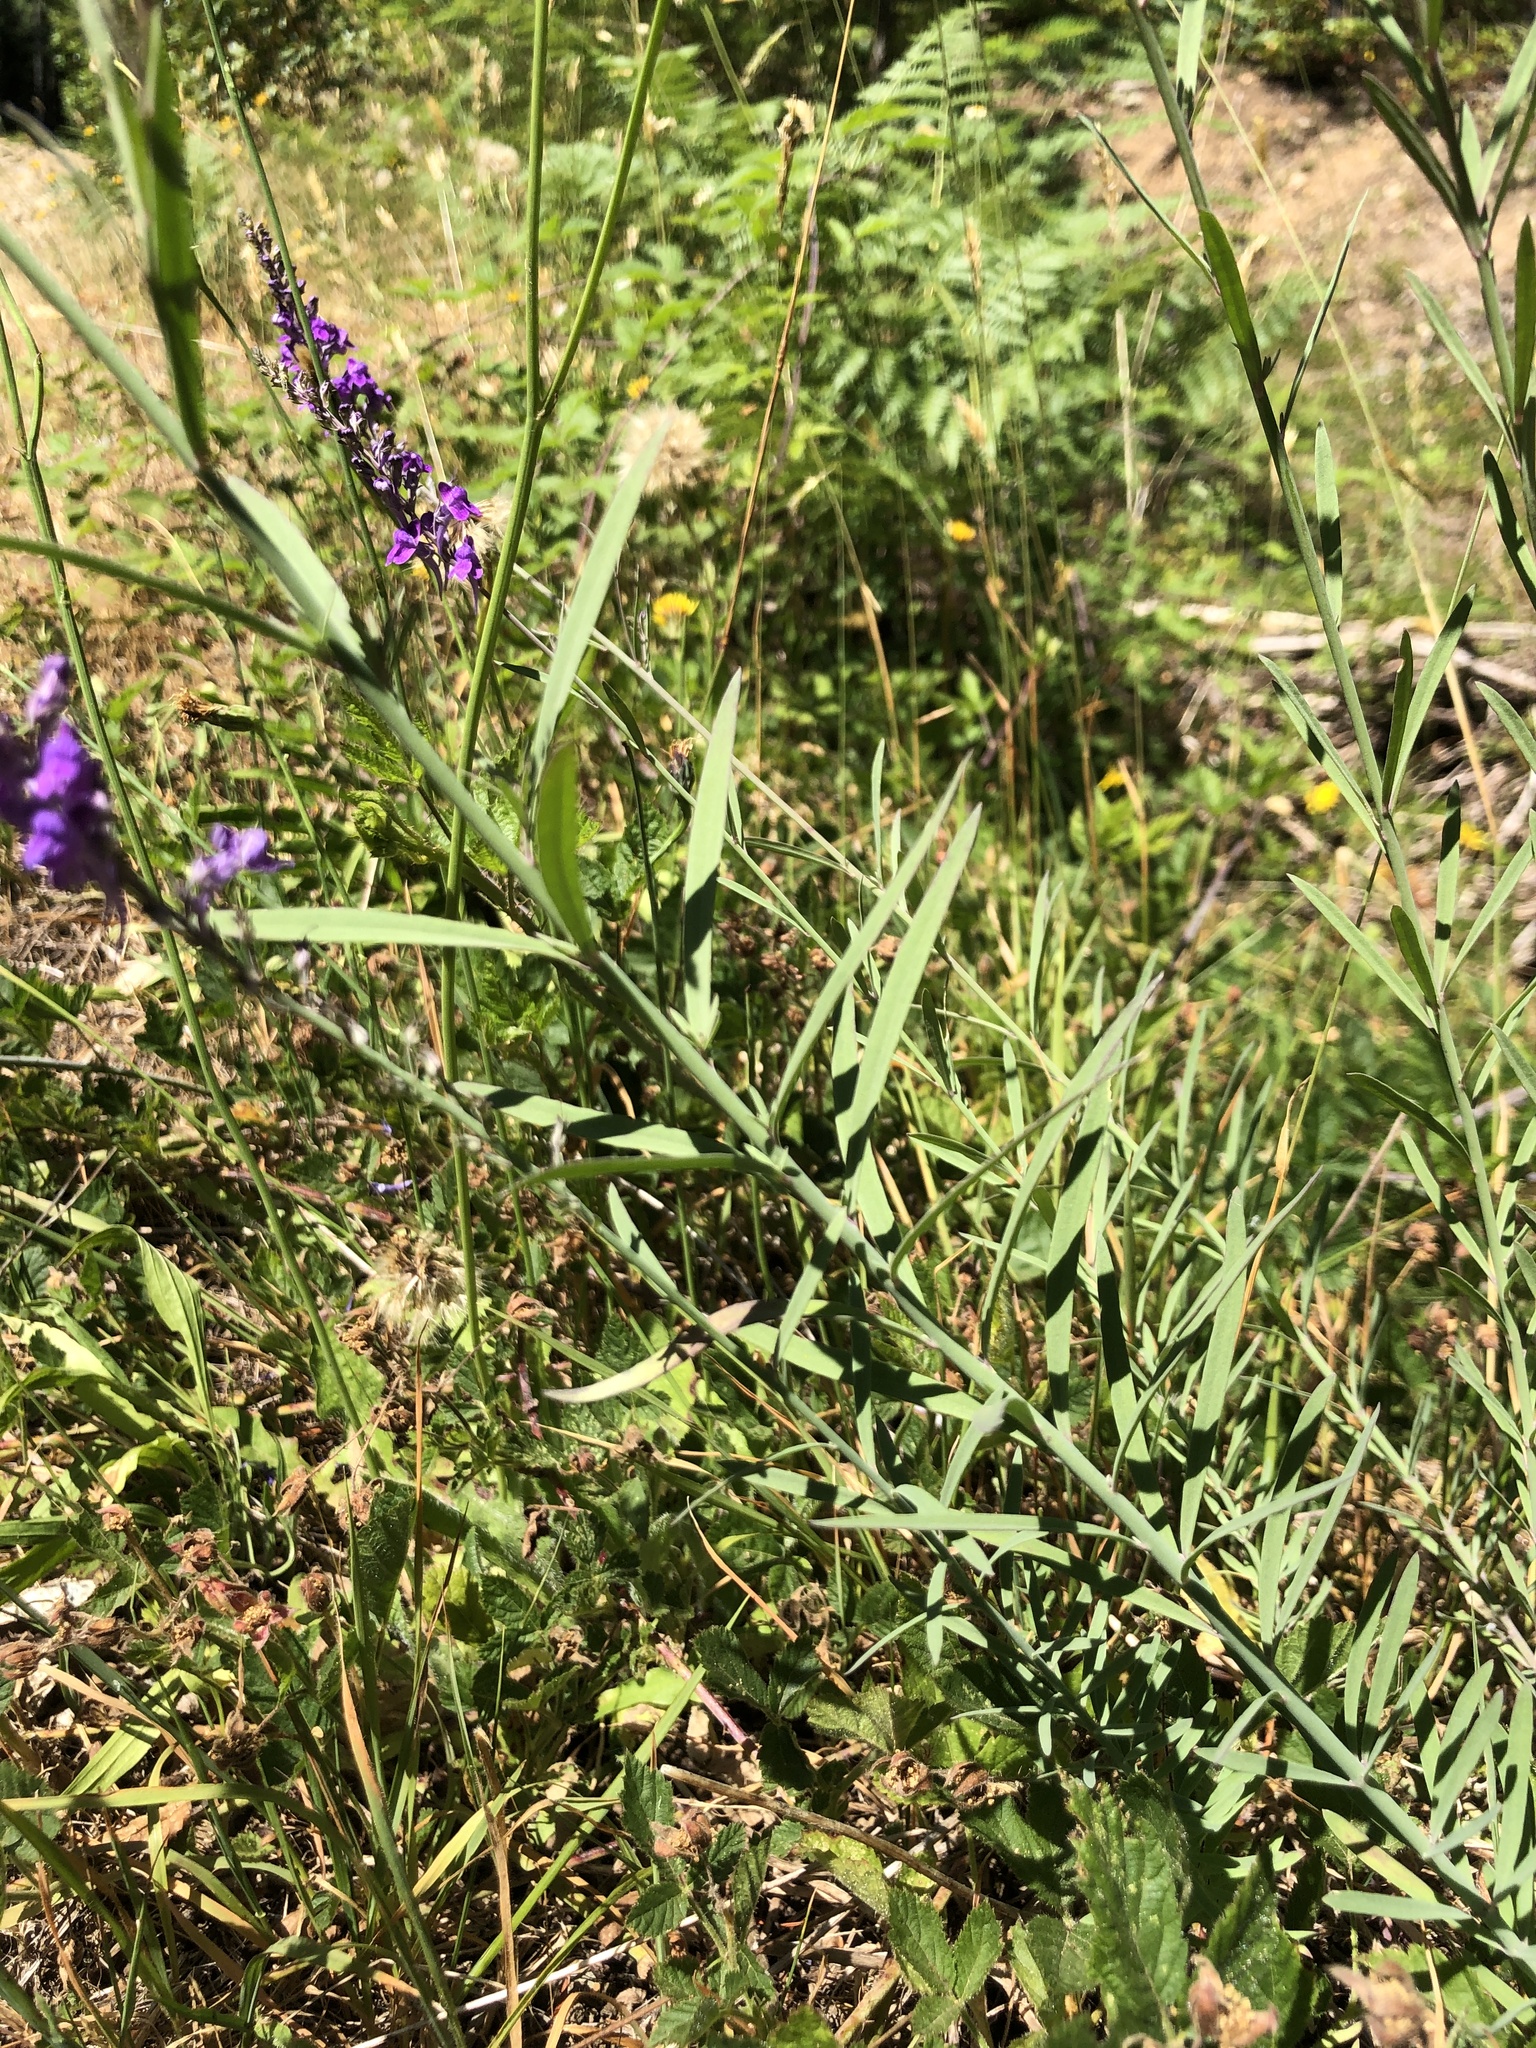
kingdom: Plantae
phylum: Tracheophyta
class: Magnoliopsida
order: Lamiales
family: Plantaginaceae
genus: Linaria
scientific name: Linaria purpurea
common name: Purple toadflax
